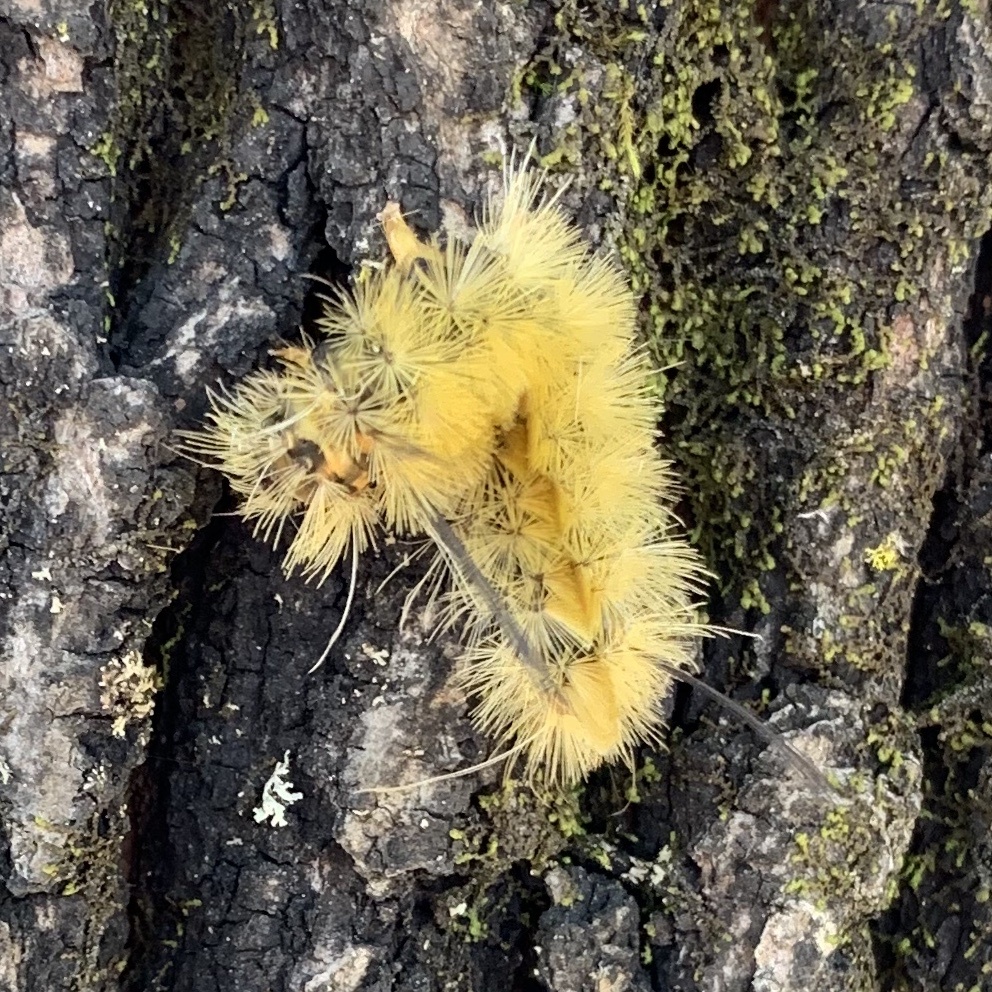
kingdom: Animalia
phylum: Arthropoda
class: Insecta
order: Lepidoptera
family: Erebidae
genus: Halysidota
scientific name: Halysidota tessellaris
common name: Banded tussock moth
